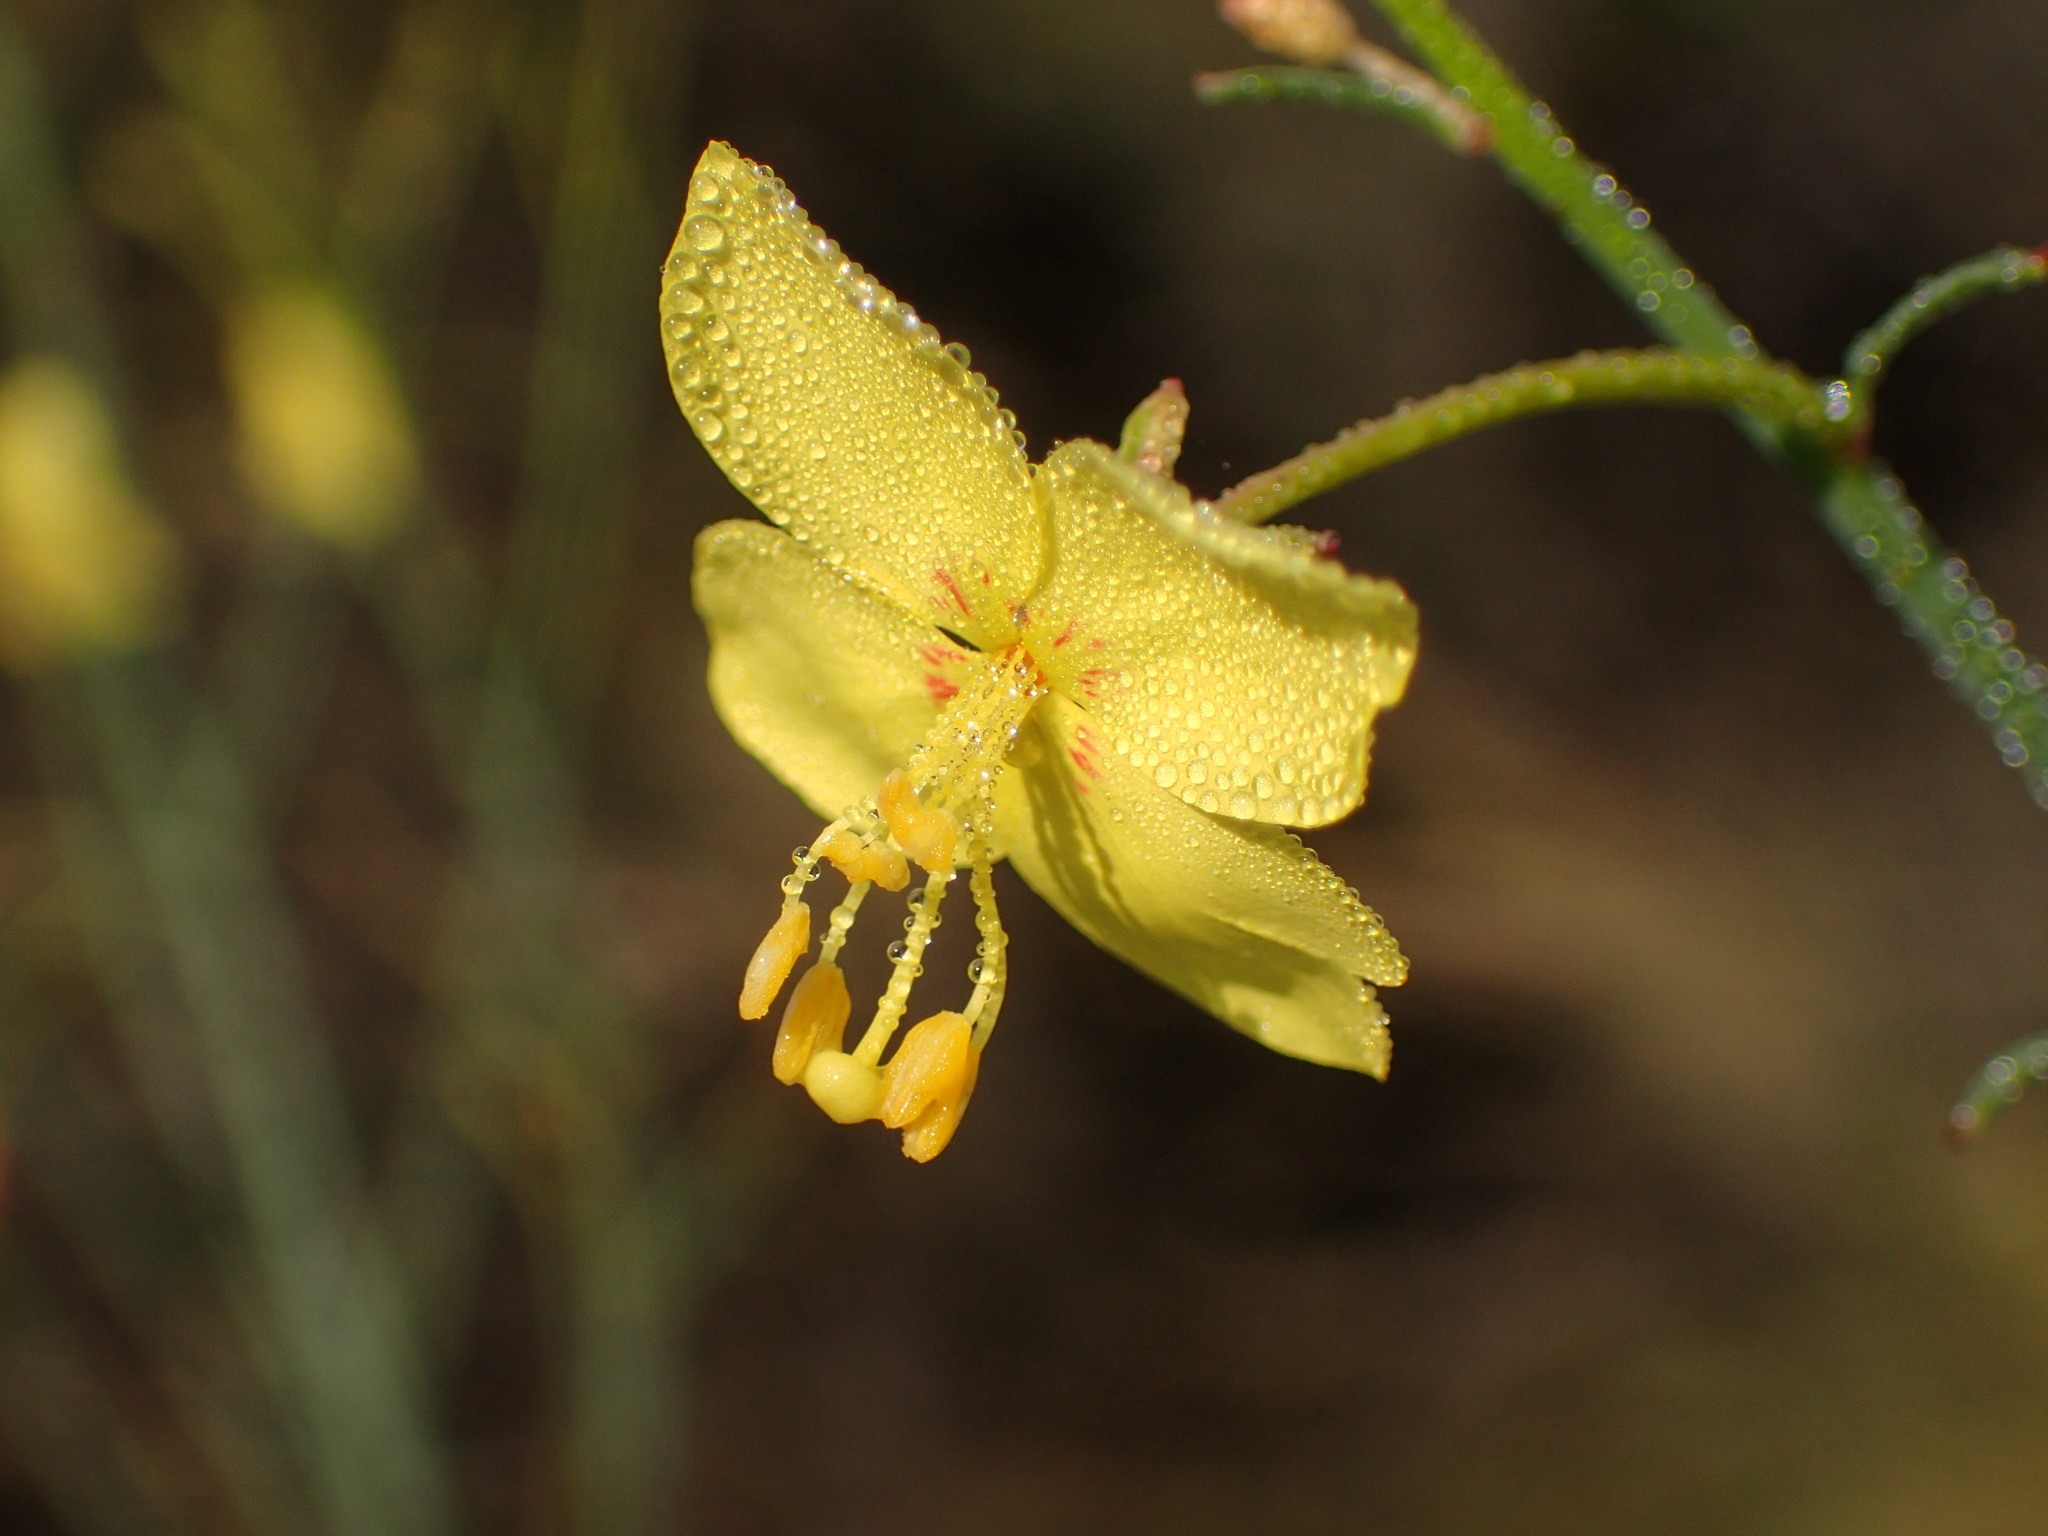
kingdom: Plantae
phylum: Tracheophyta
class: Magnoliopsida
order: Myrtales
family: Onagraceae
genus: Eulobus
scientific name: Eulobus californicus
